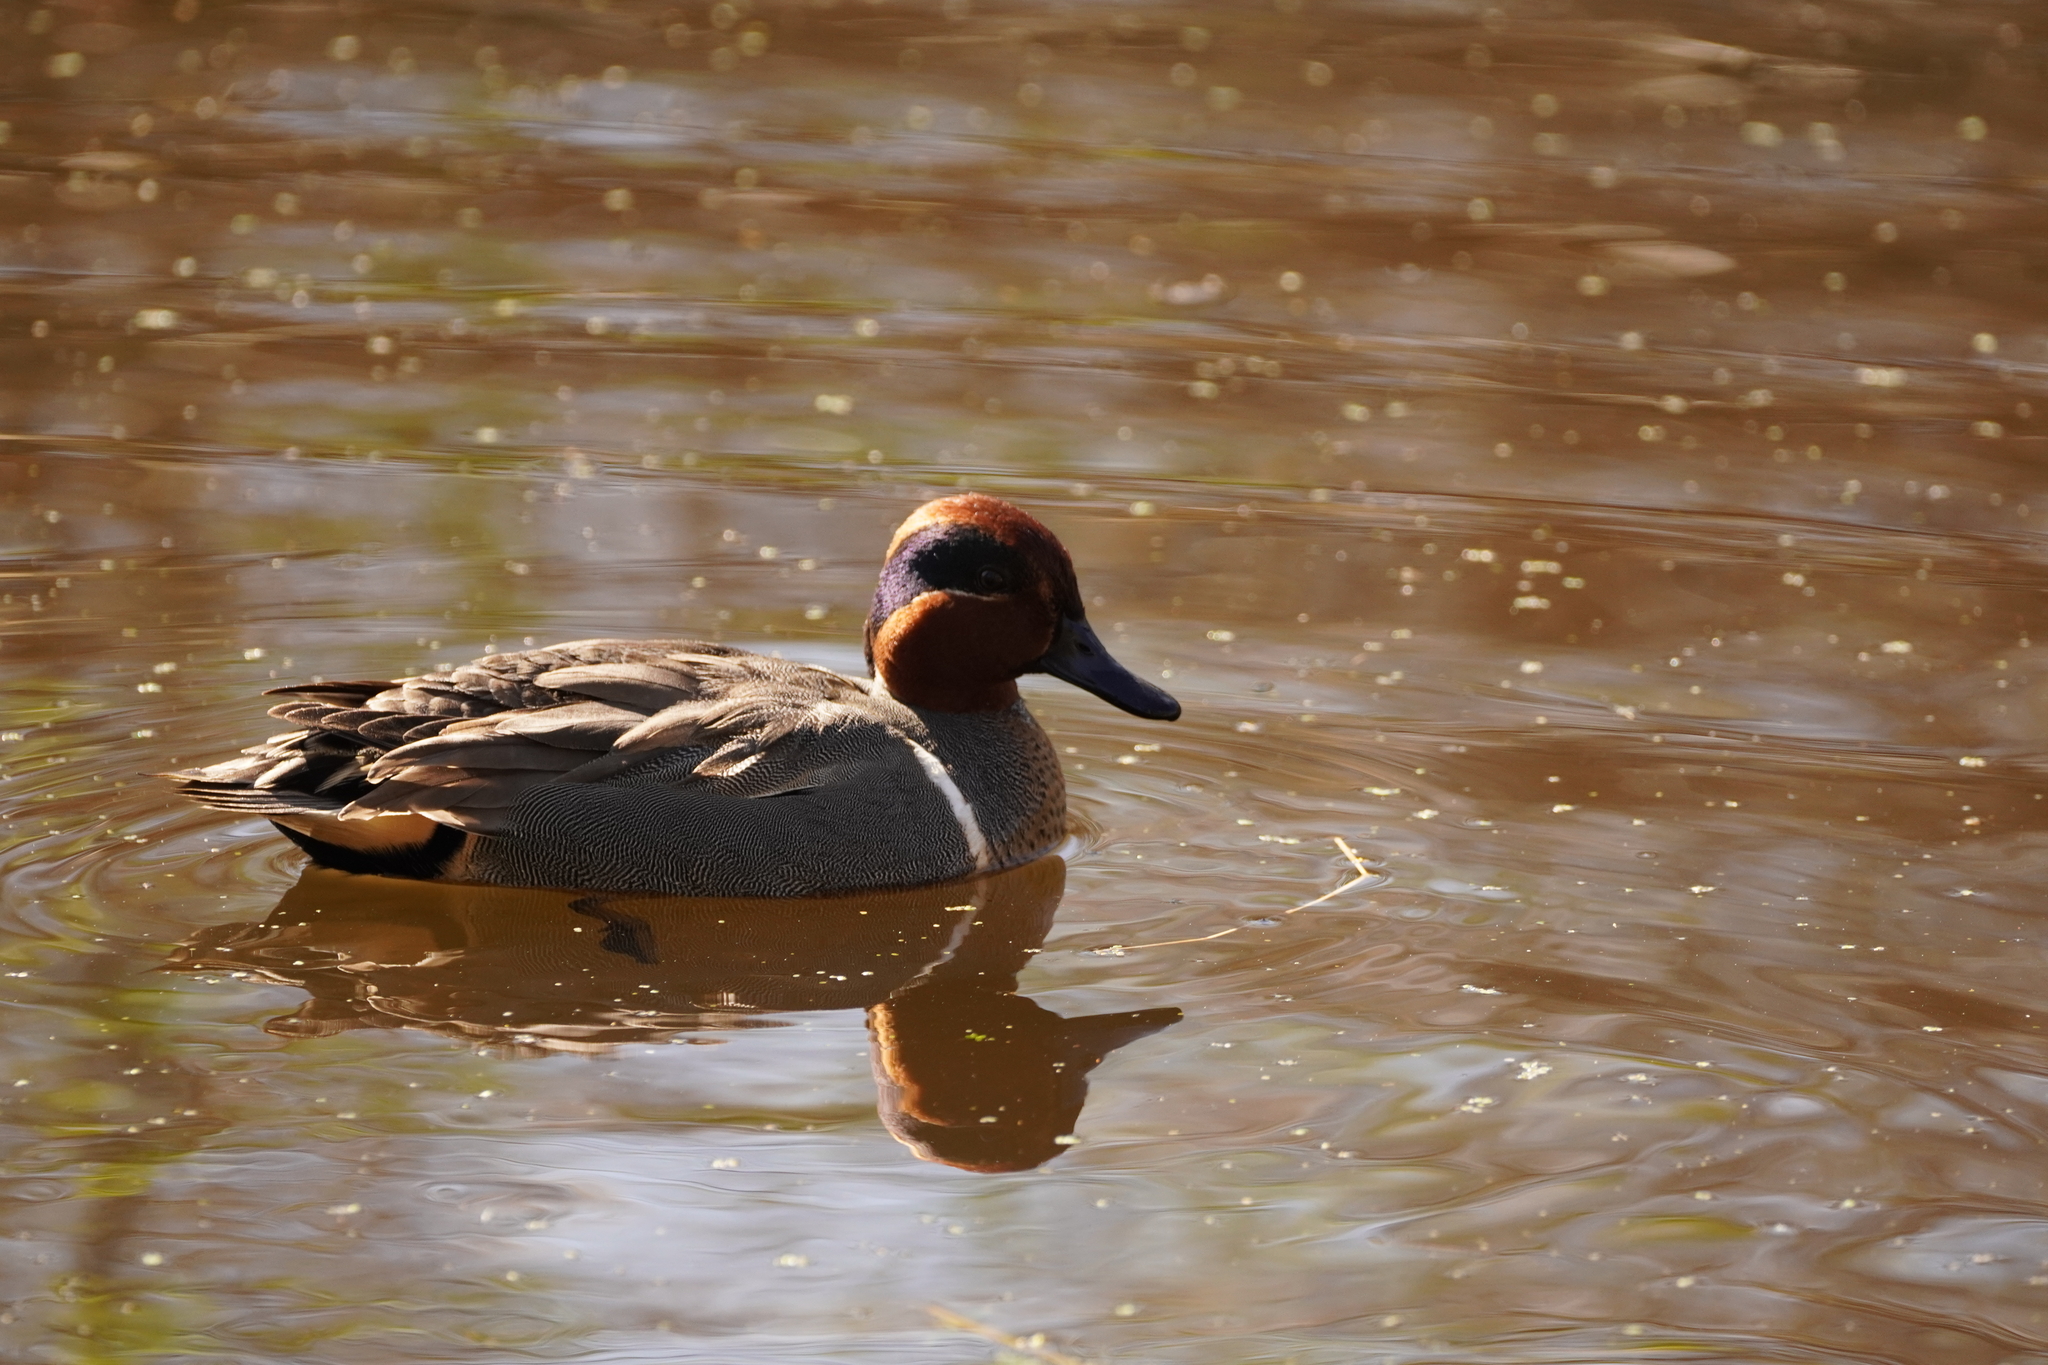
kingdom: Animalia
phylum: Chordata
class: Aves
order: Anseriformes
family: Anatidae
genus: Anas
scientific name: Anas crecca
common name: Eurasian teal
